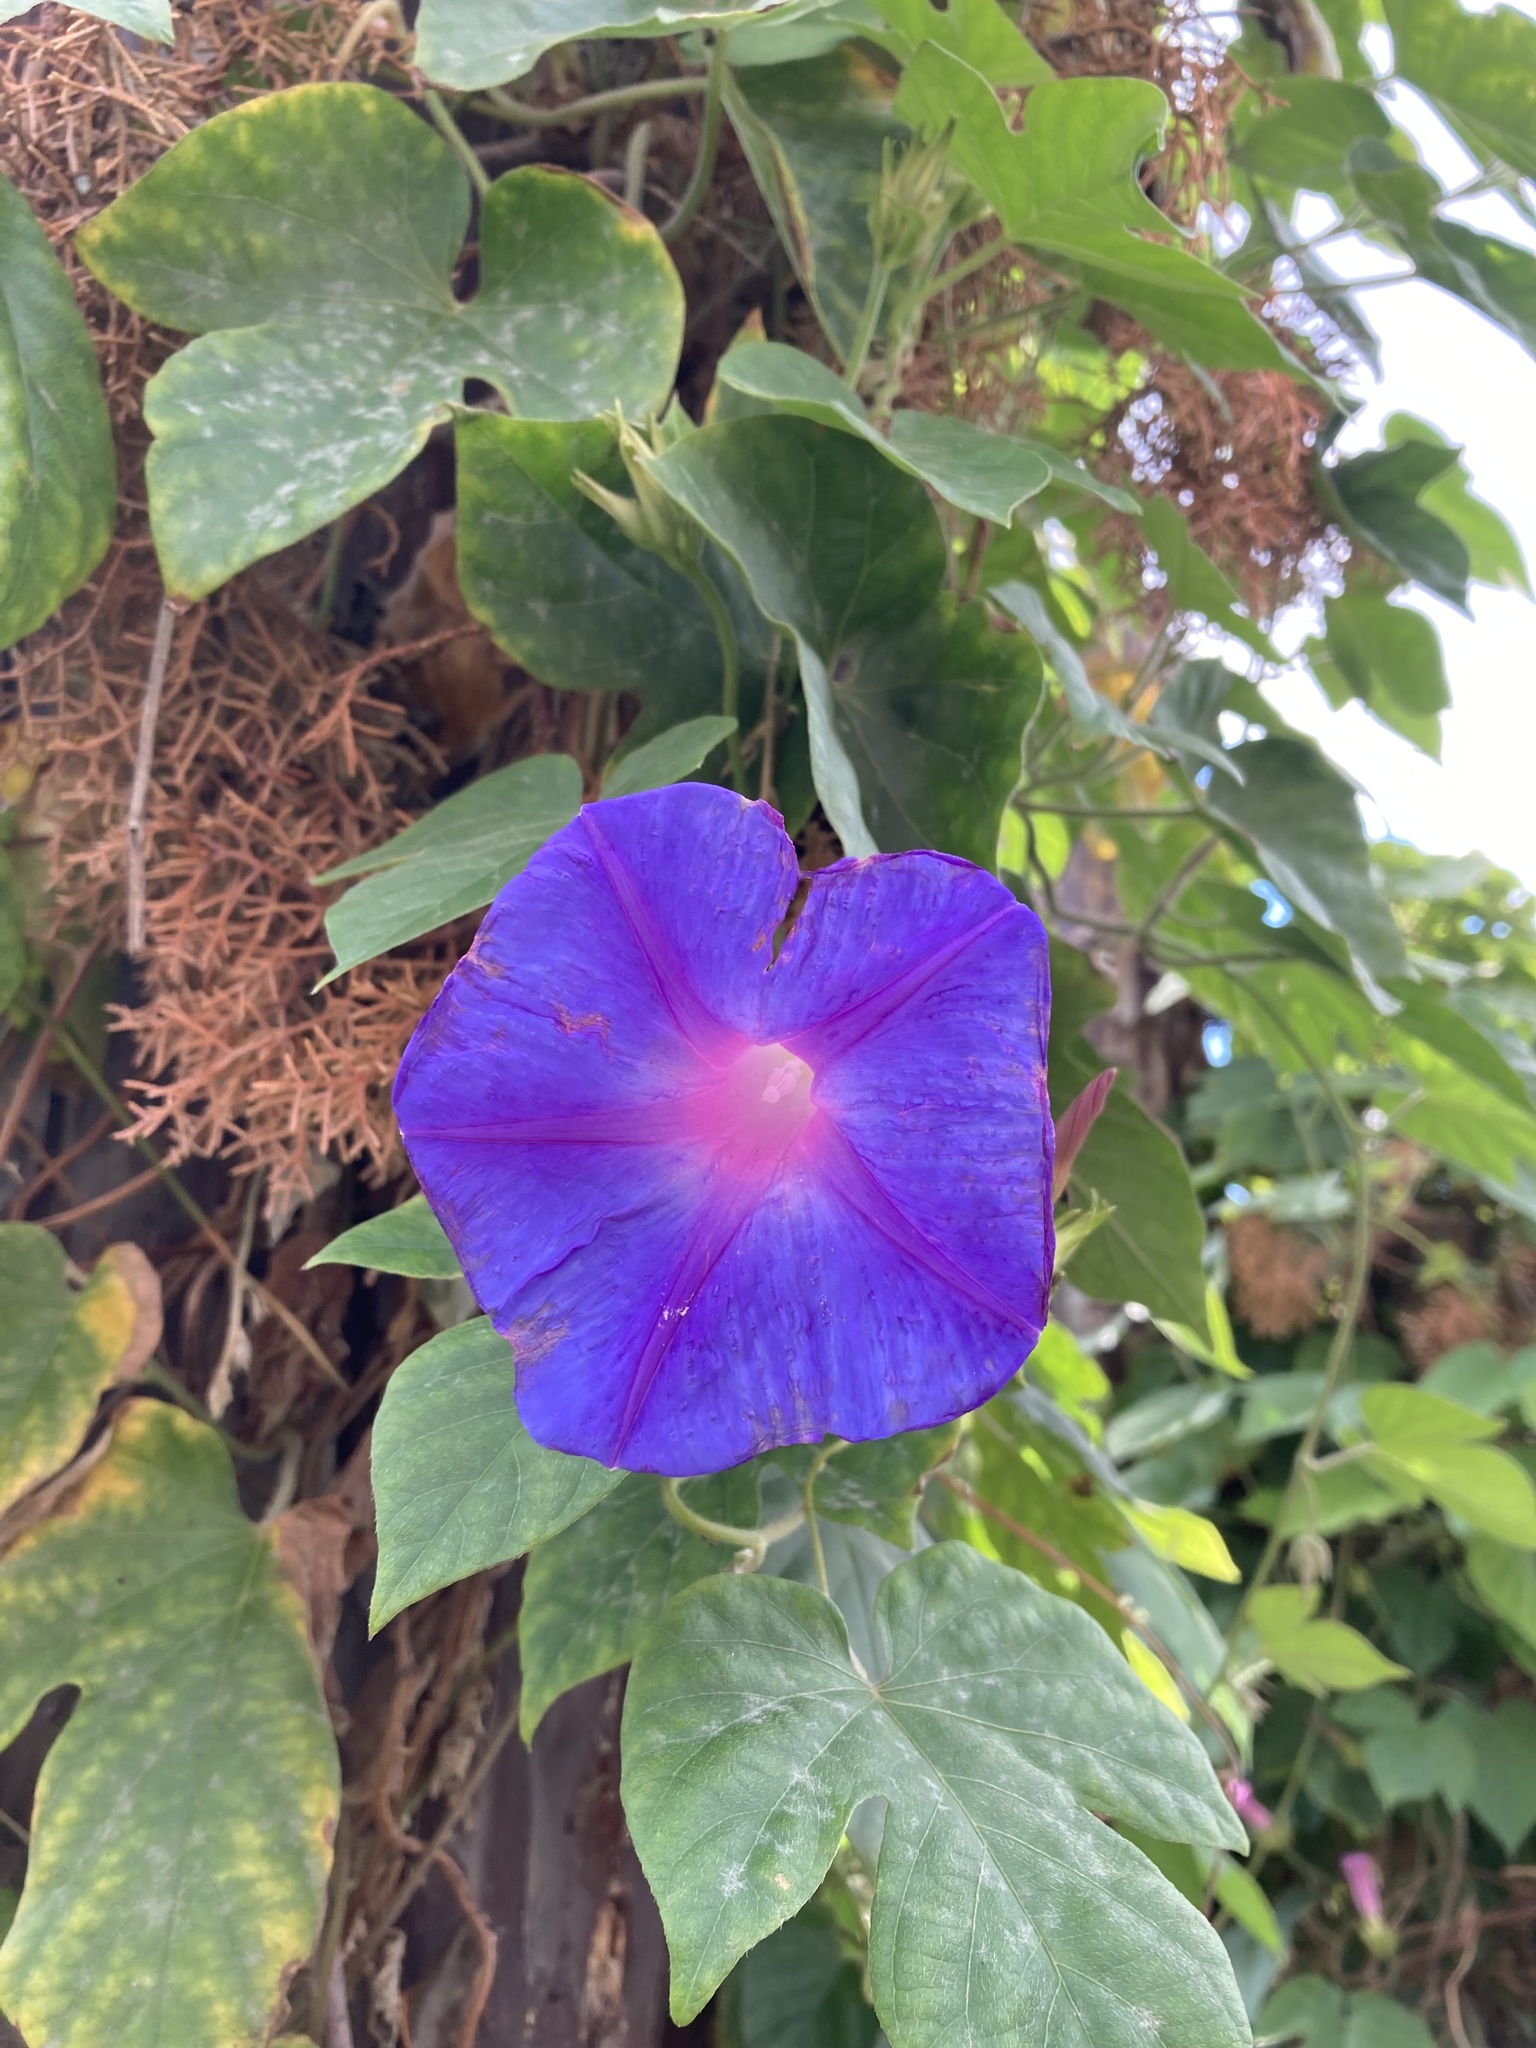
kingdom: Plantae
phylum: Tracheophyta
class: Magnoliopsida
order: Solanales
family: Convolvulaceae
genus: Ipomoea
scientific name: Ipomoea indica
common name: Blue dawnflower
